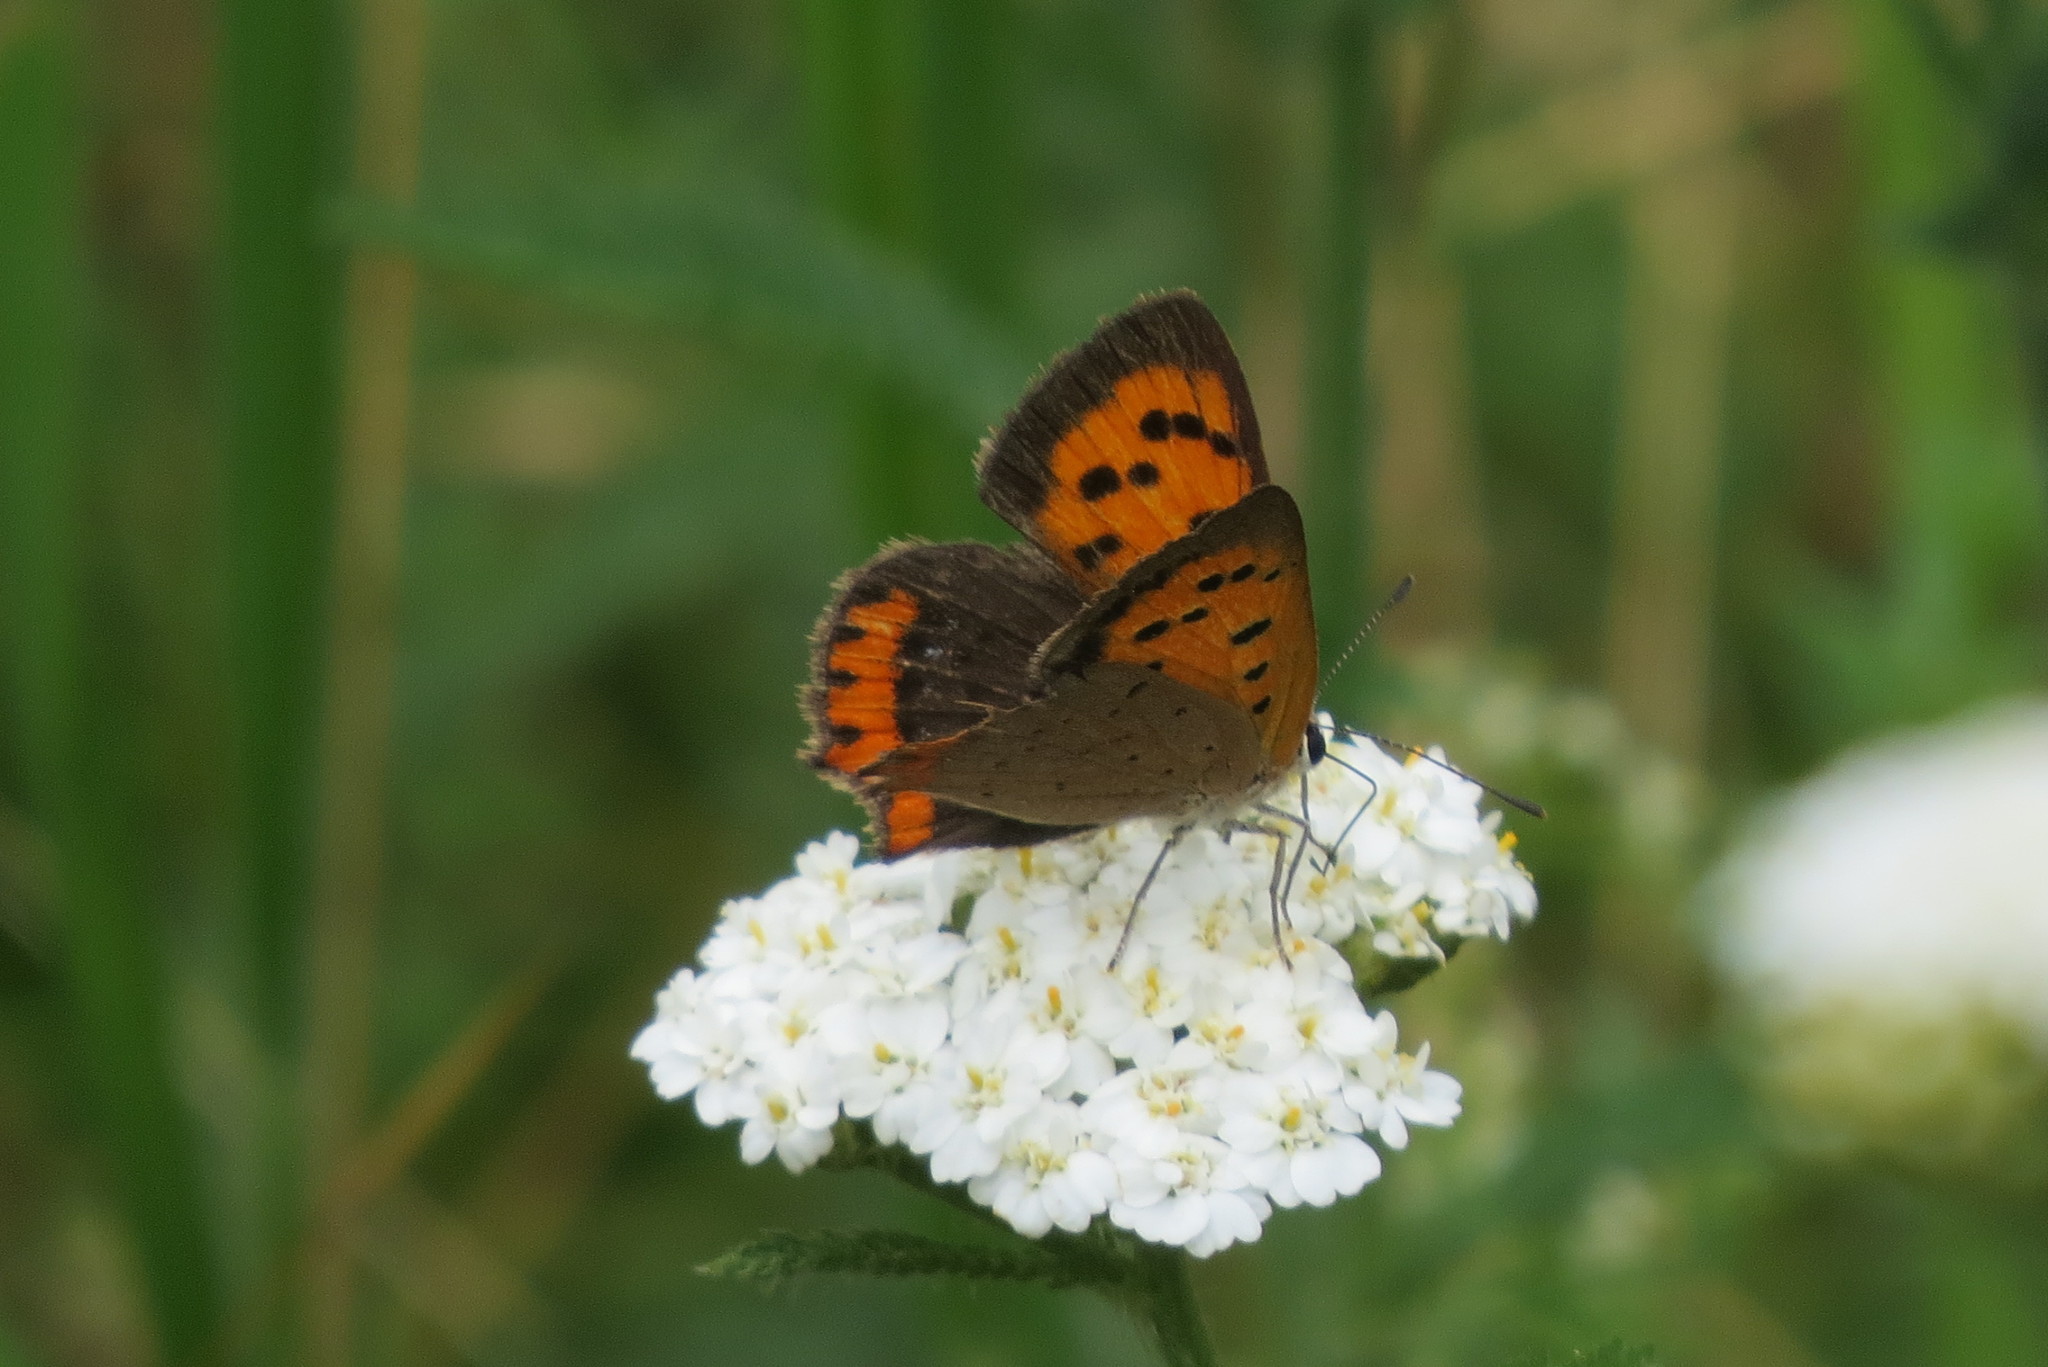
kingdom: Animalia
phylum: Arthropoda
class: Insecta
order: Lepidoptera
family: Lycaenidae
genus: Lycaena
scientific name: Lycaena phlaeas
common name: Small copper
